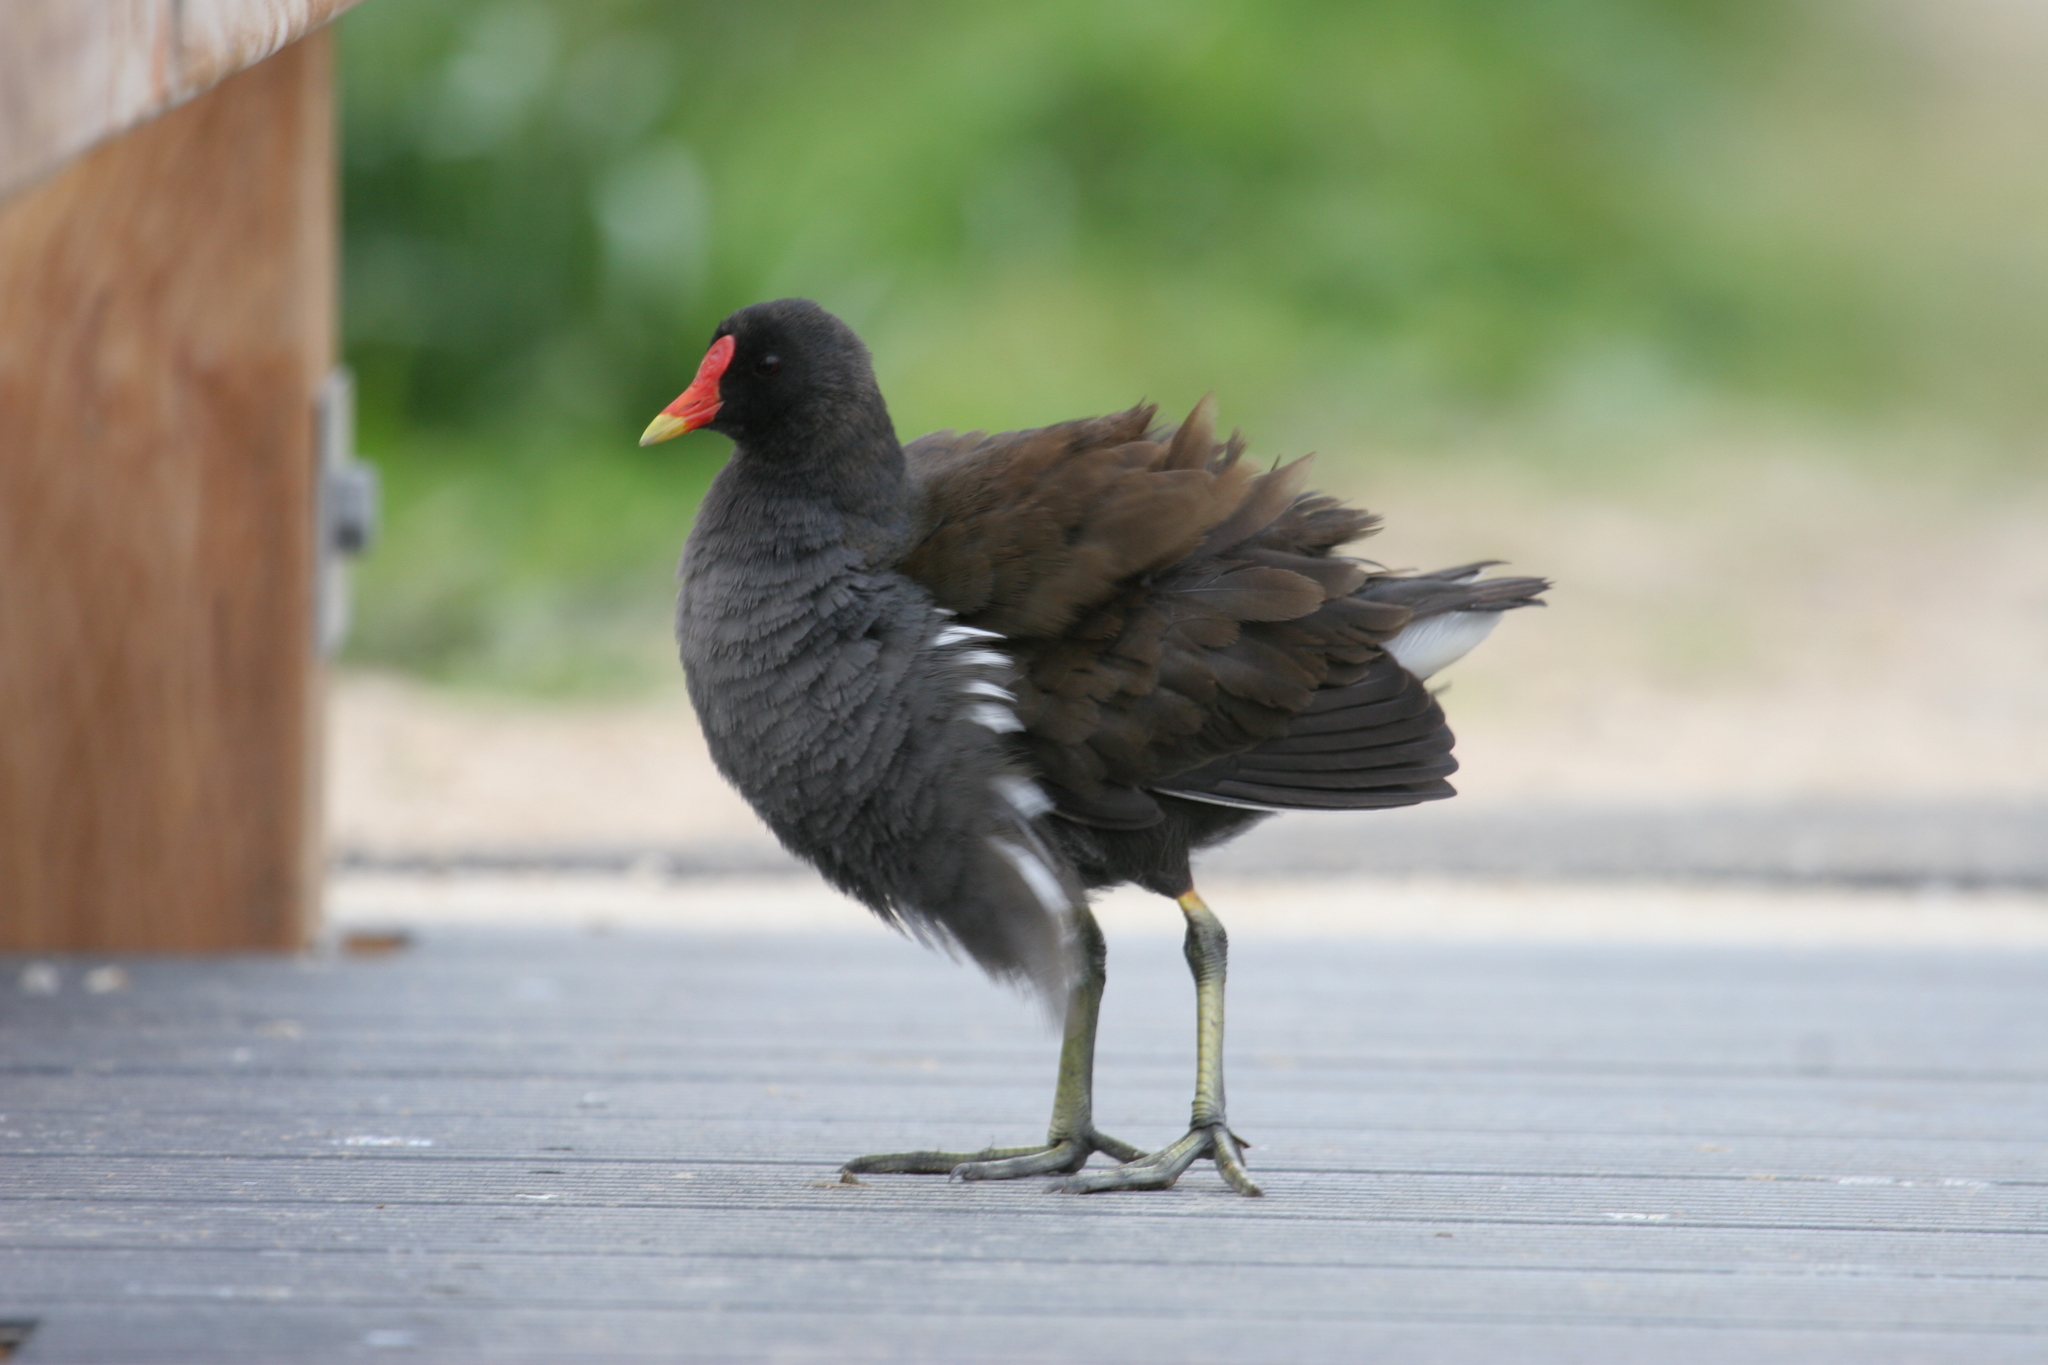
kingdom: Animalia
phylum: Chordata
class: Aves
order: Gruiformes
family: Rallidae
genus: Gallinula
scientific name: Gallinula chloropus
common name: Common moorhen
